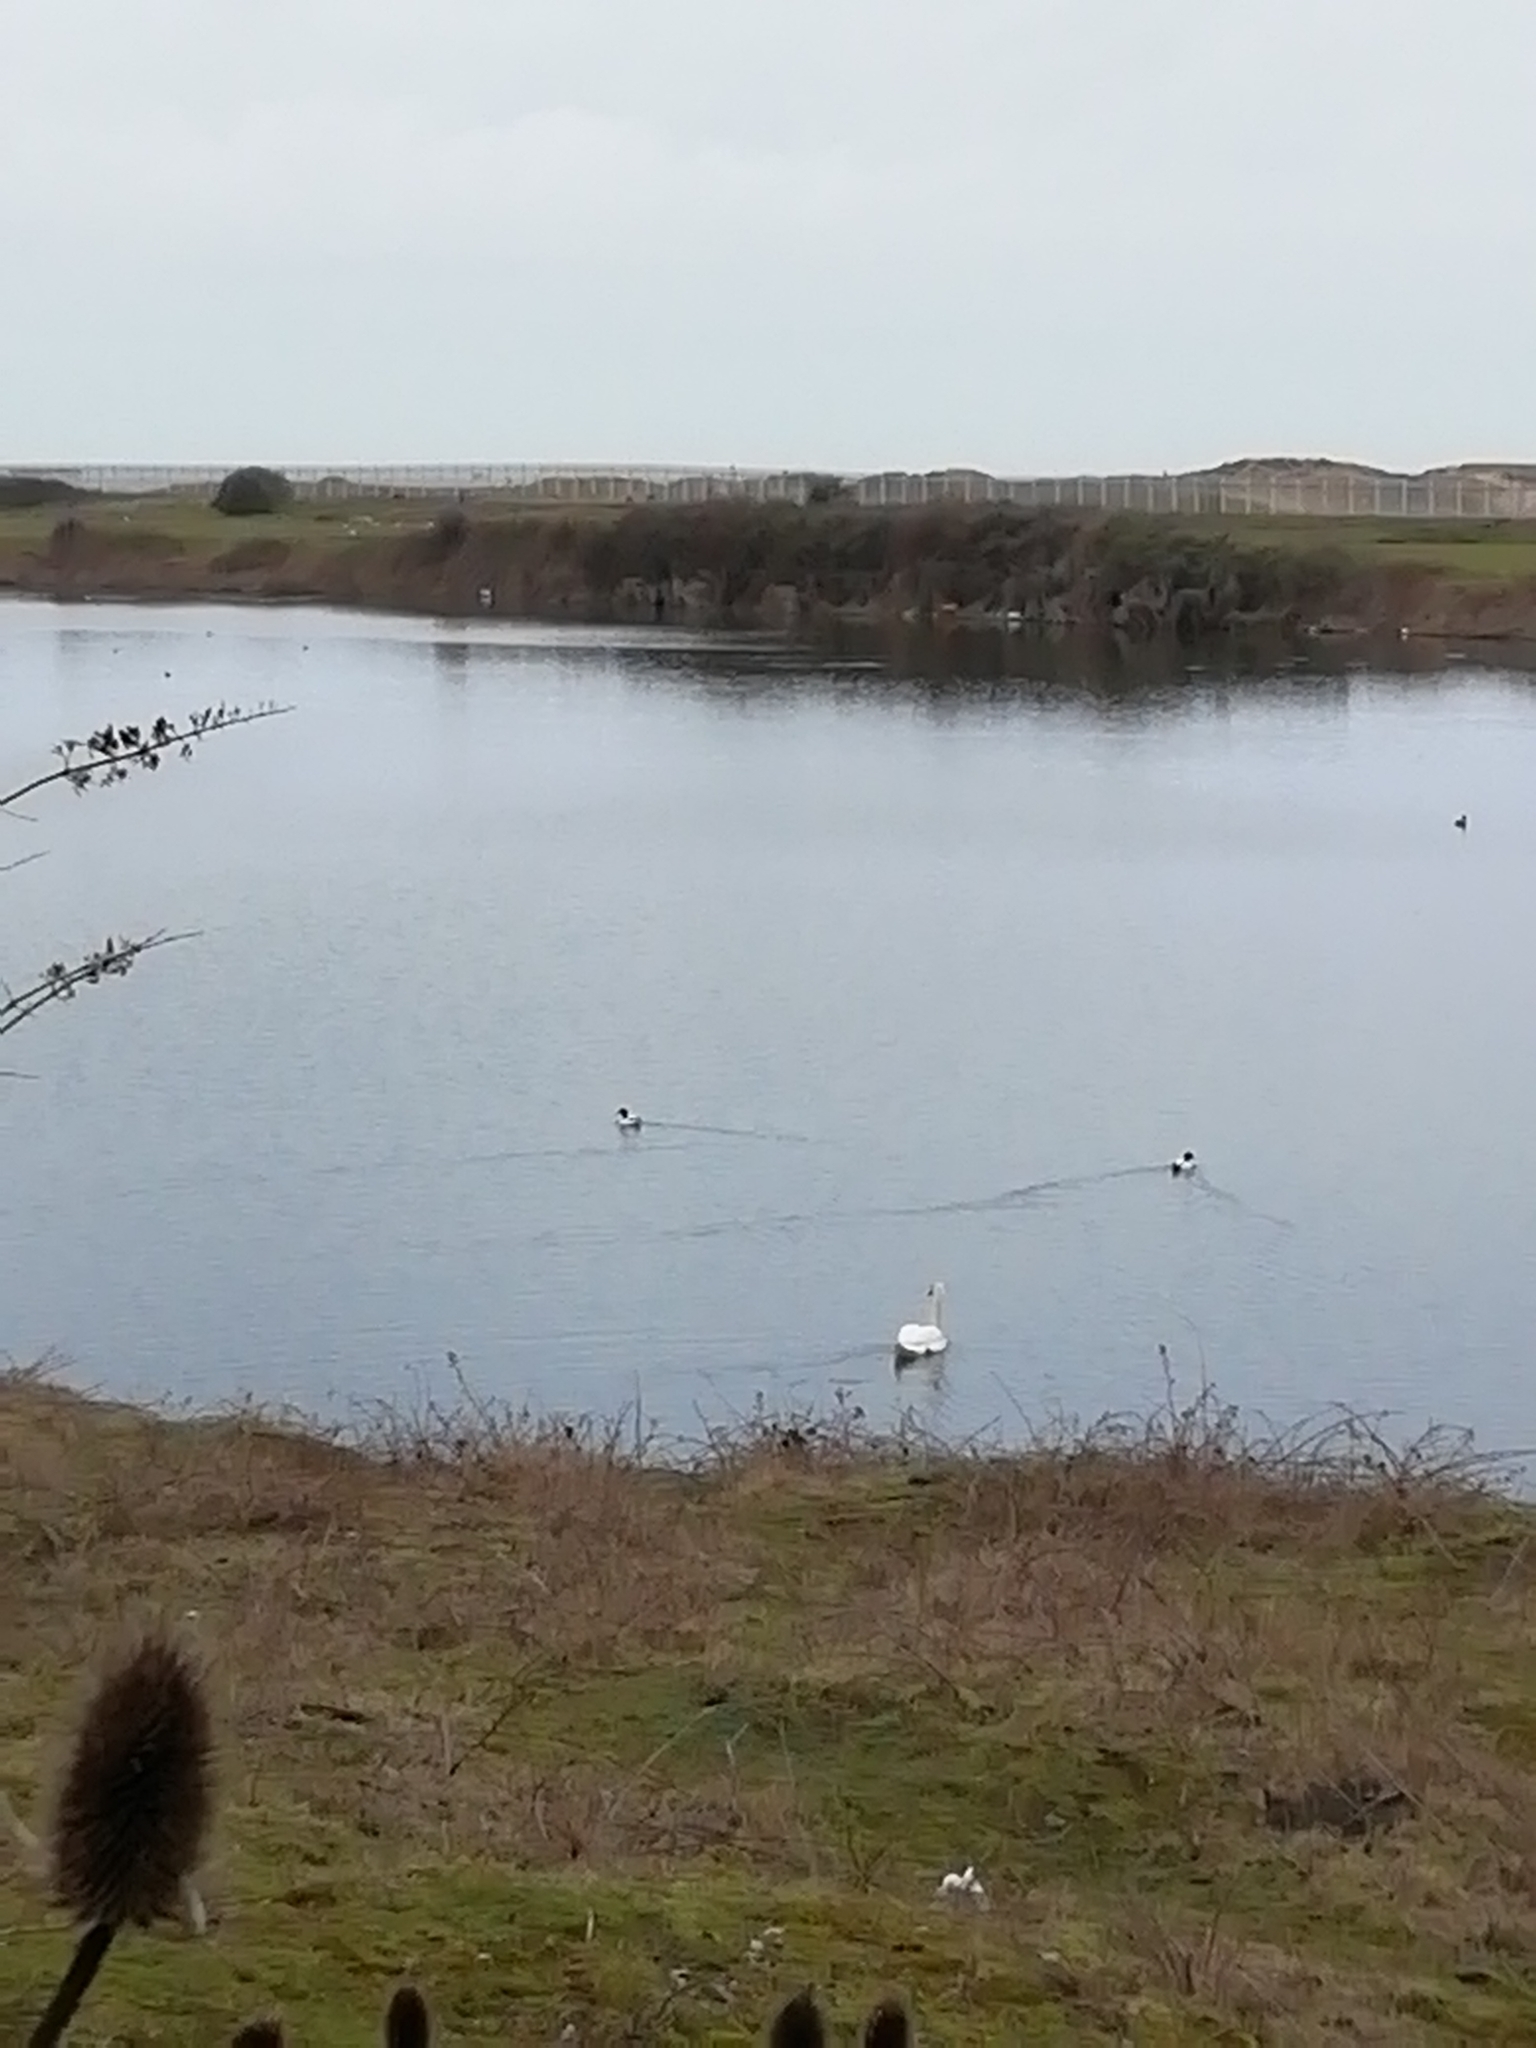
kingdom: Animalia
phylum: Chordata
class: Aves
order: Anseriformes
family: Anatidae
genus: Cygnus
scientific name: Cygnus olor
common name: Mute swan
